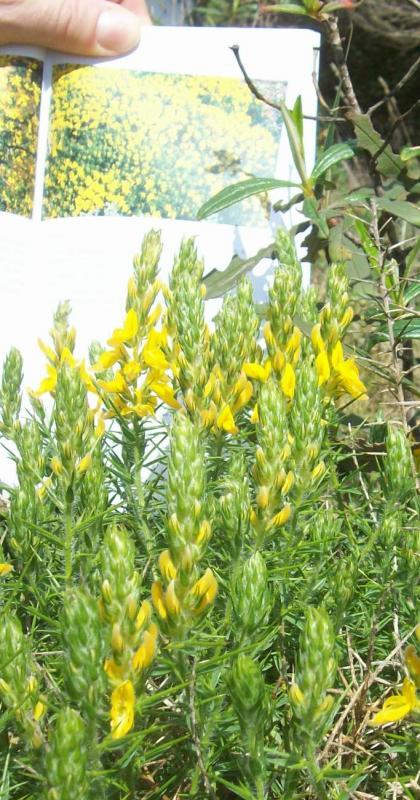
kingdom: Plantae
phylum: Tracheophyta
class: Magnoliopsida
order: Fabales
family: Fabaceae
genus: Genista
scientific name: Genista hirsuta
